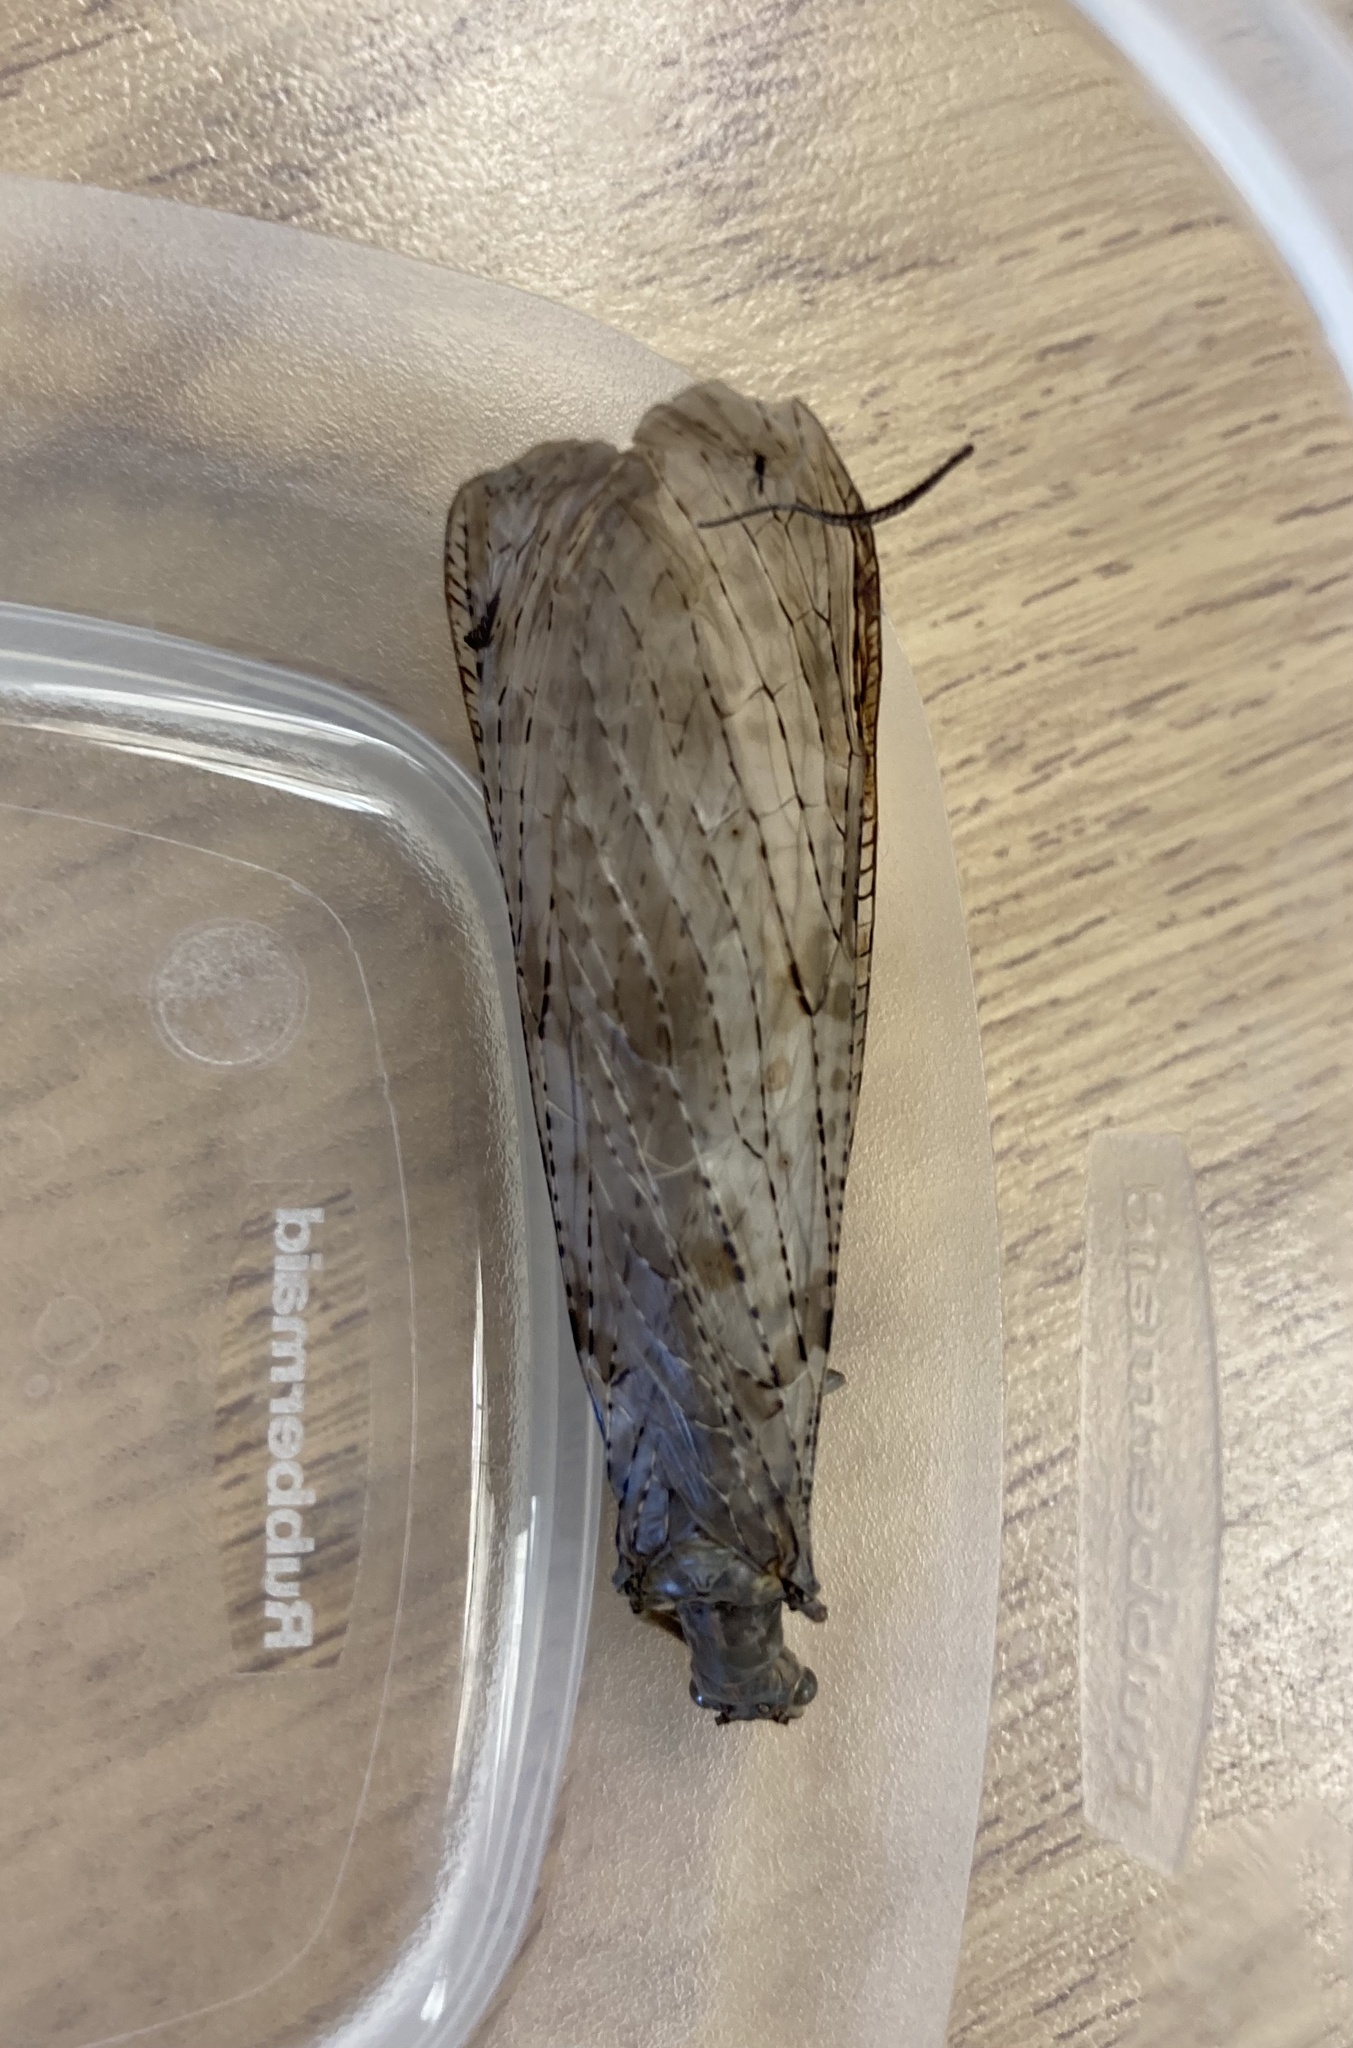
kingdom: Animalia
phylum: Arthropoda
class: Insecta
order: Megaloptera
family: Corydalidae
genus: Chauliodes
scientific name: Chauliodes pectinicornis
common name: Summer fishfly
